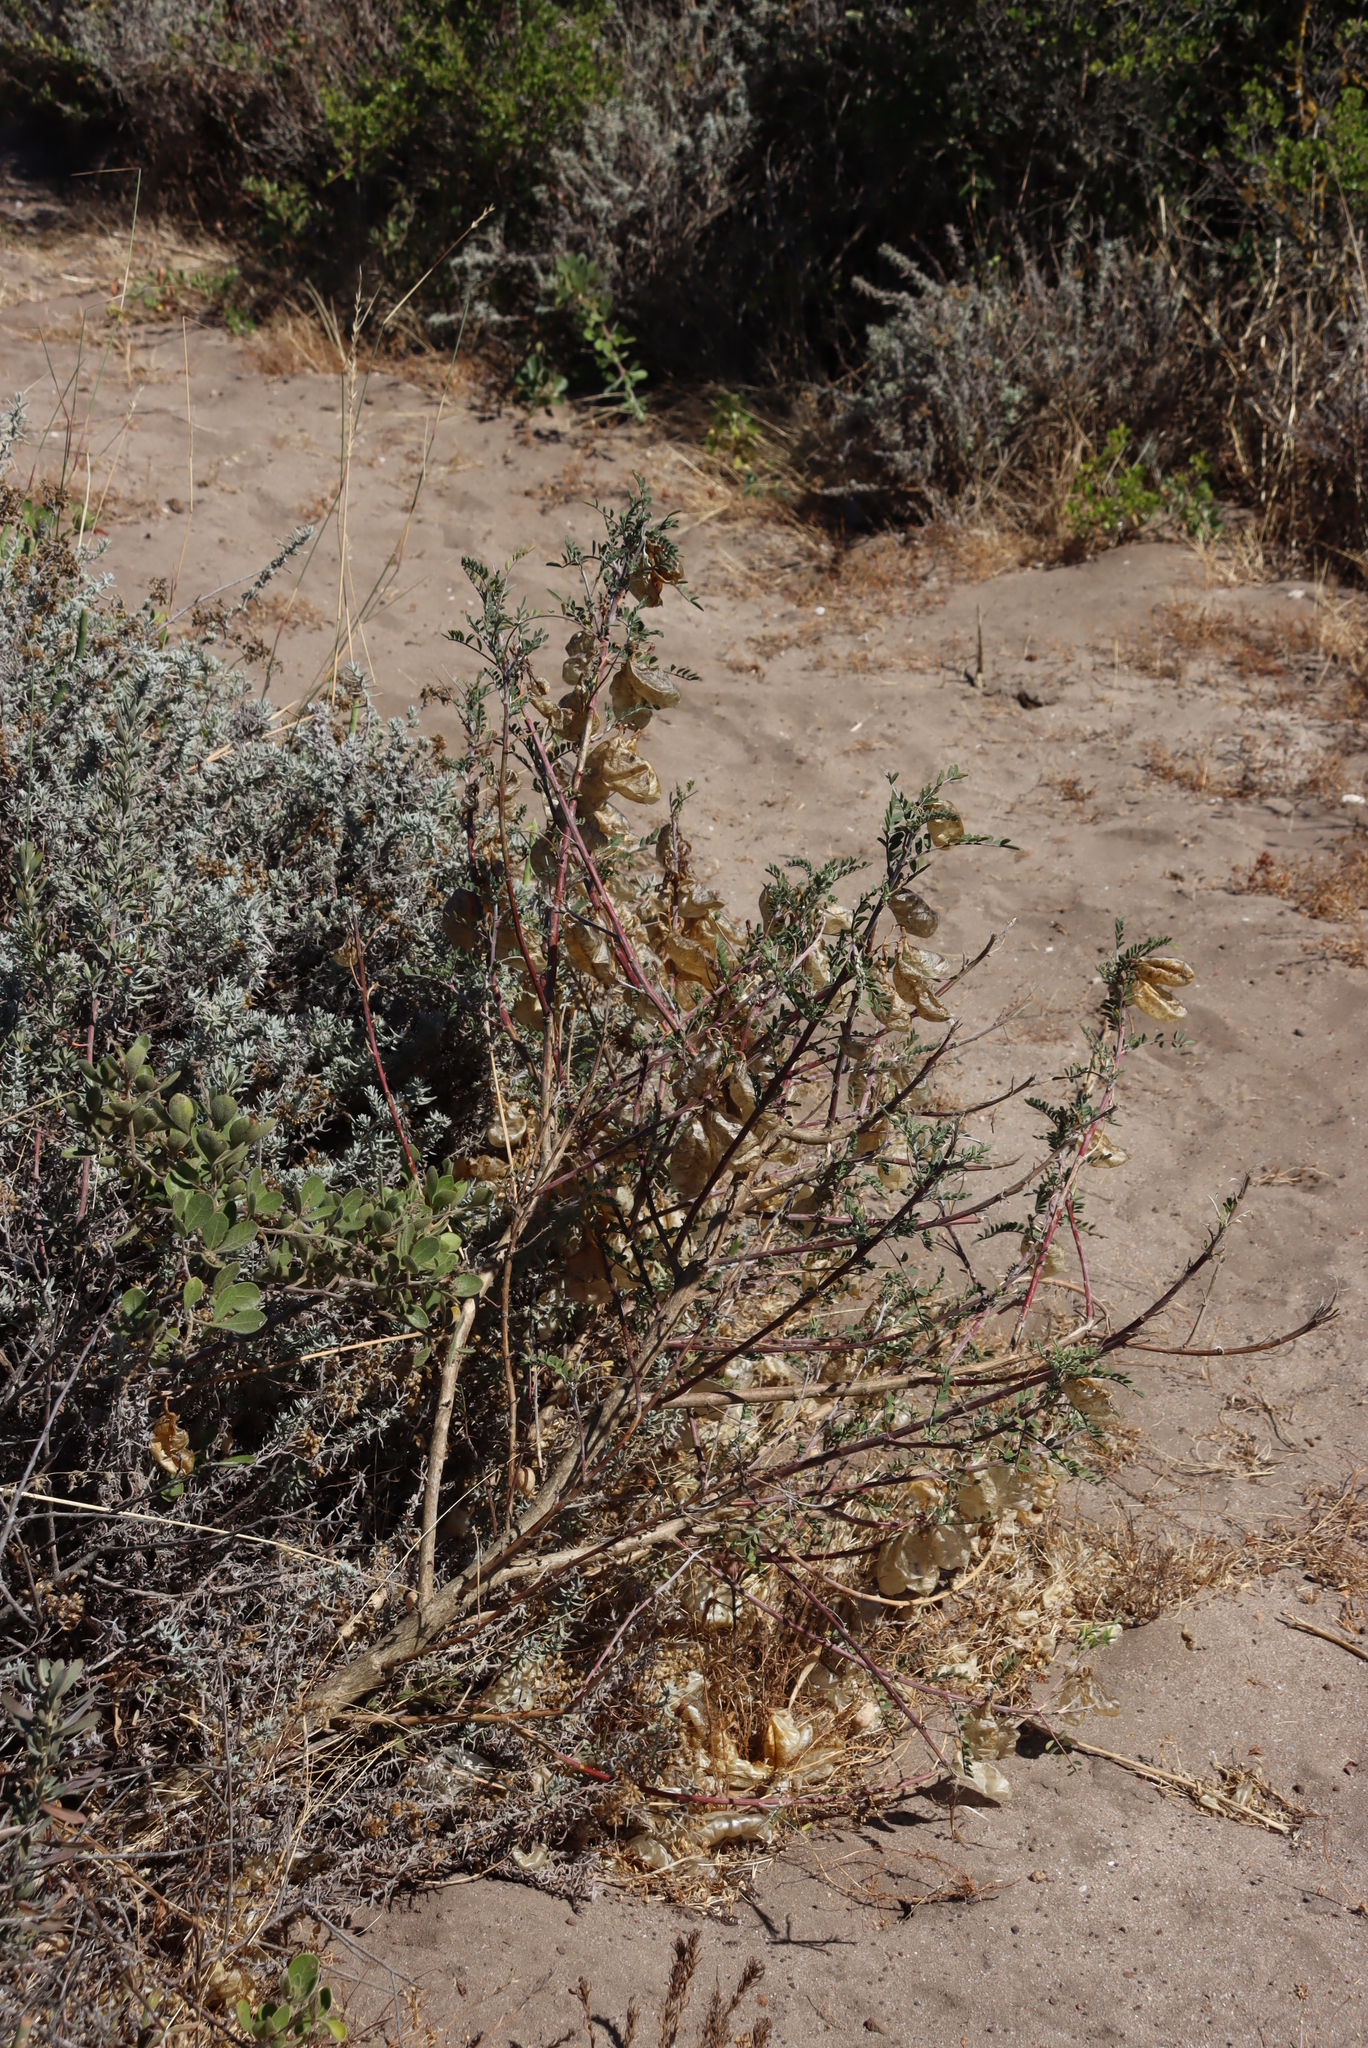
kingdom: Plantae
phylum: Tracheophyta
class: Magnoliopsida
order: Fabales
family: Fabaceae
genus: Lessertia
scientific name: Lessertia frutescens
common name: Balloon-pea
